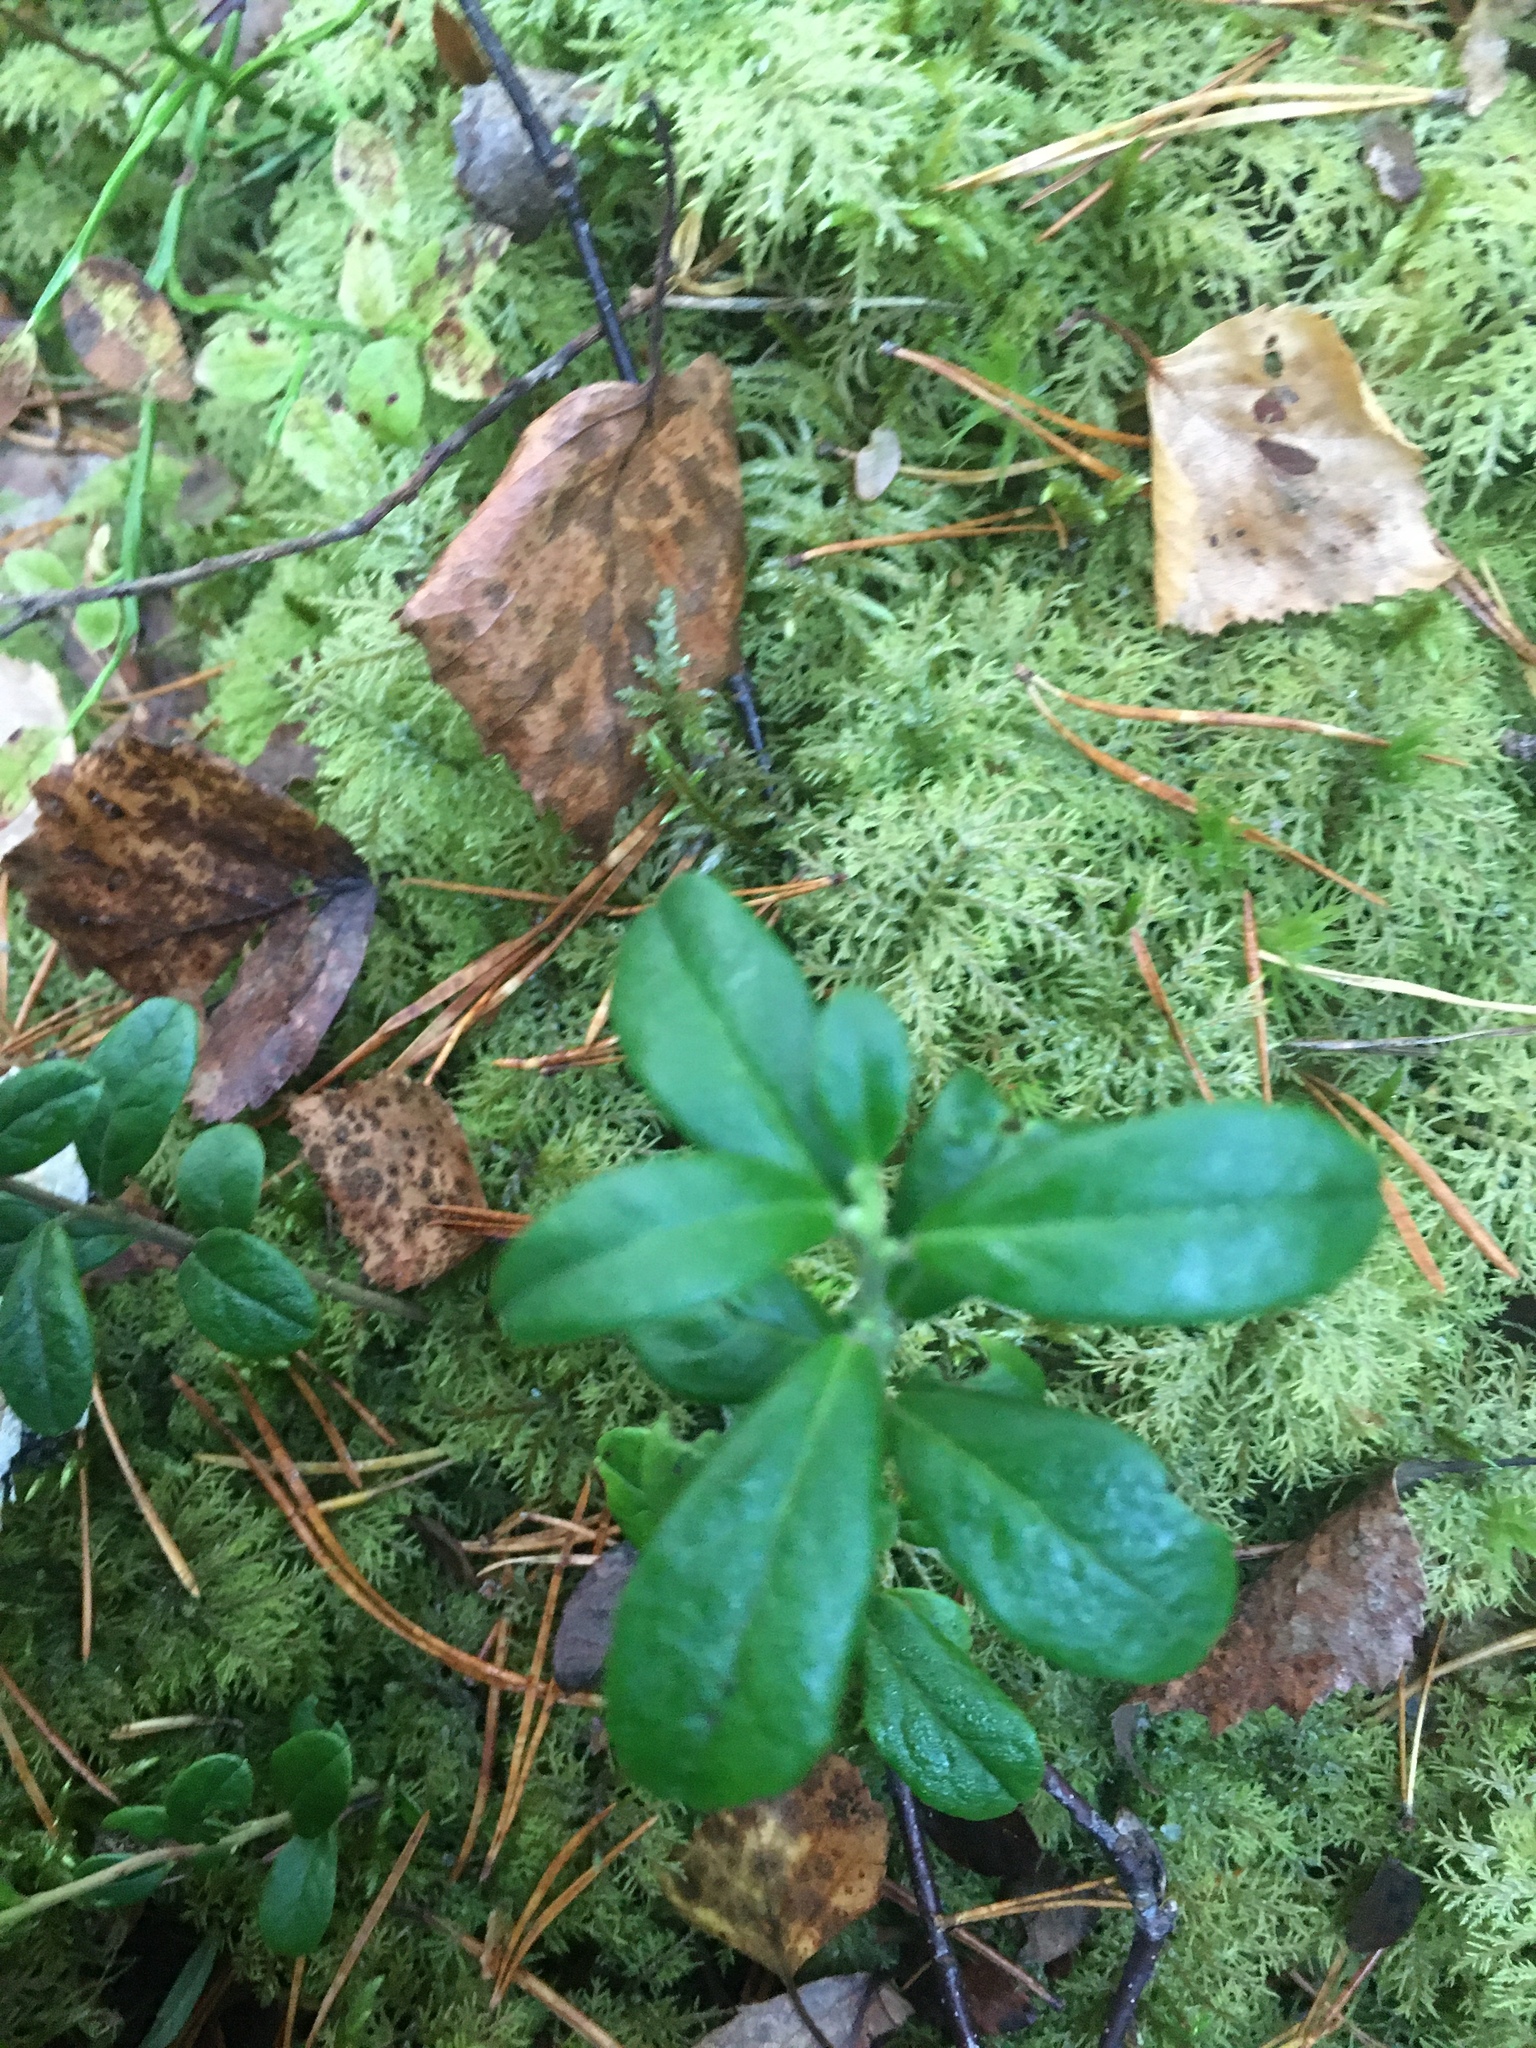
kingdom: Plantae
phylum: Tracheophyta
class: Magnoliopsida
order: Ericales
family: Ericaceae
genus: Vaccinium
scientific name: Vaccinium vitis-idaea
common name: Cowberry
